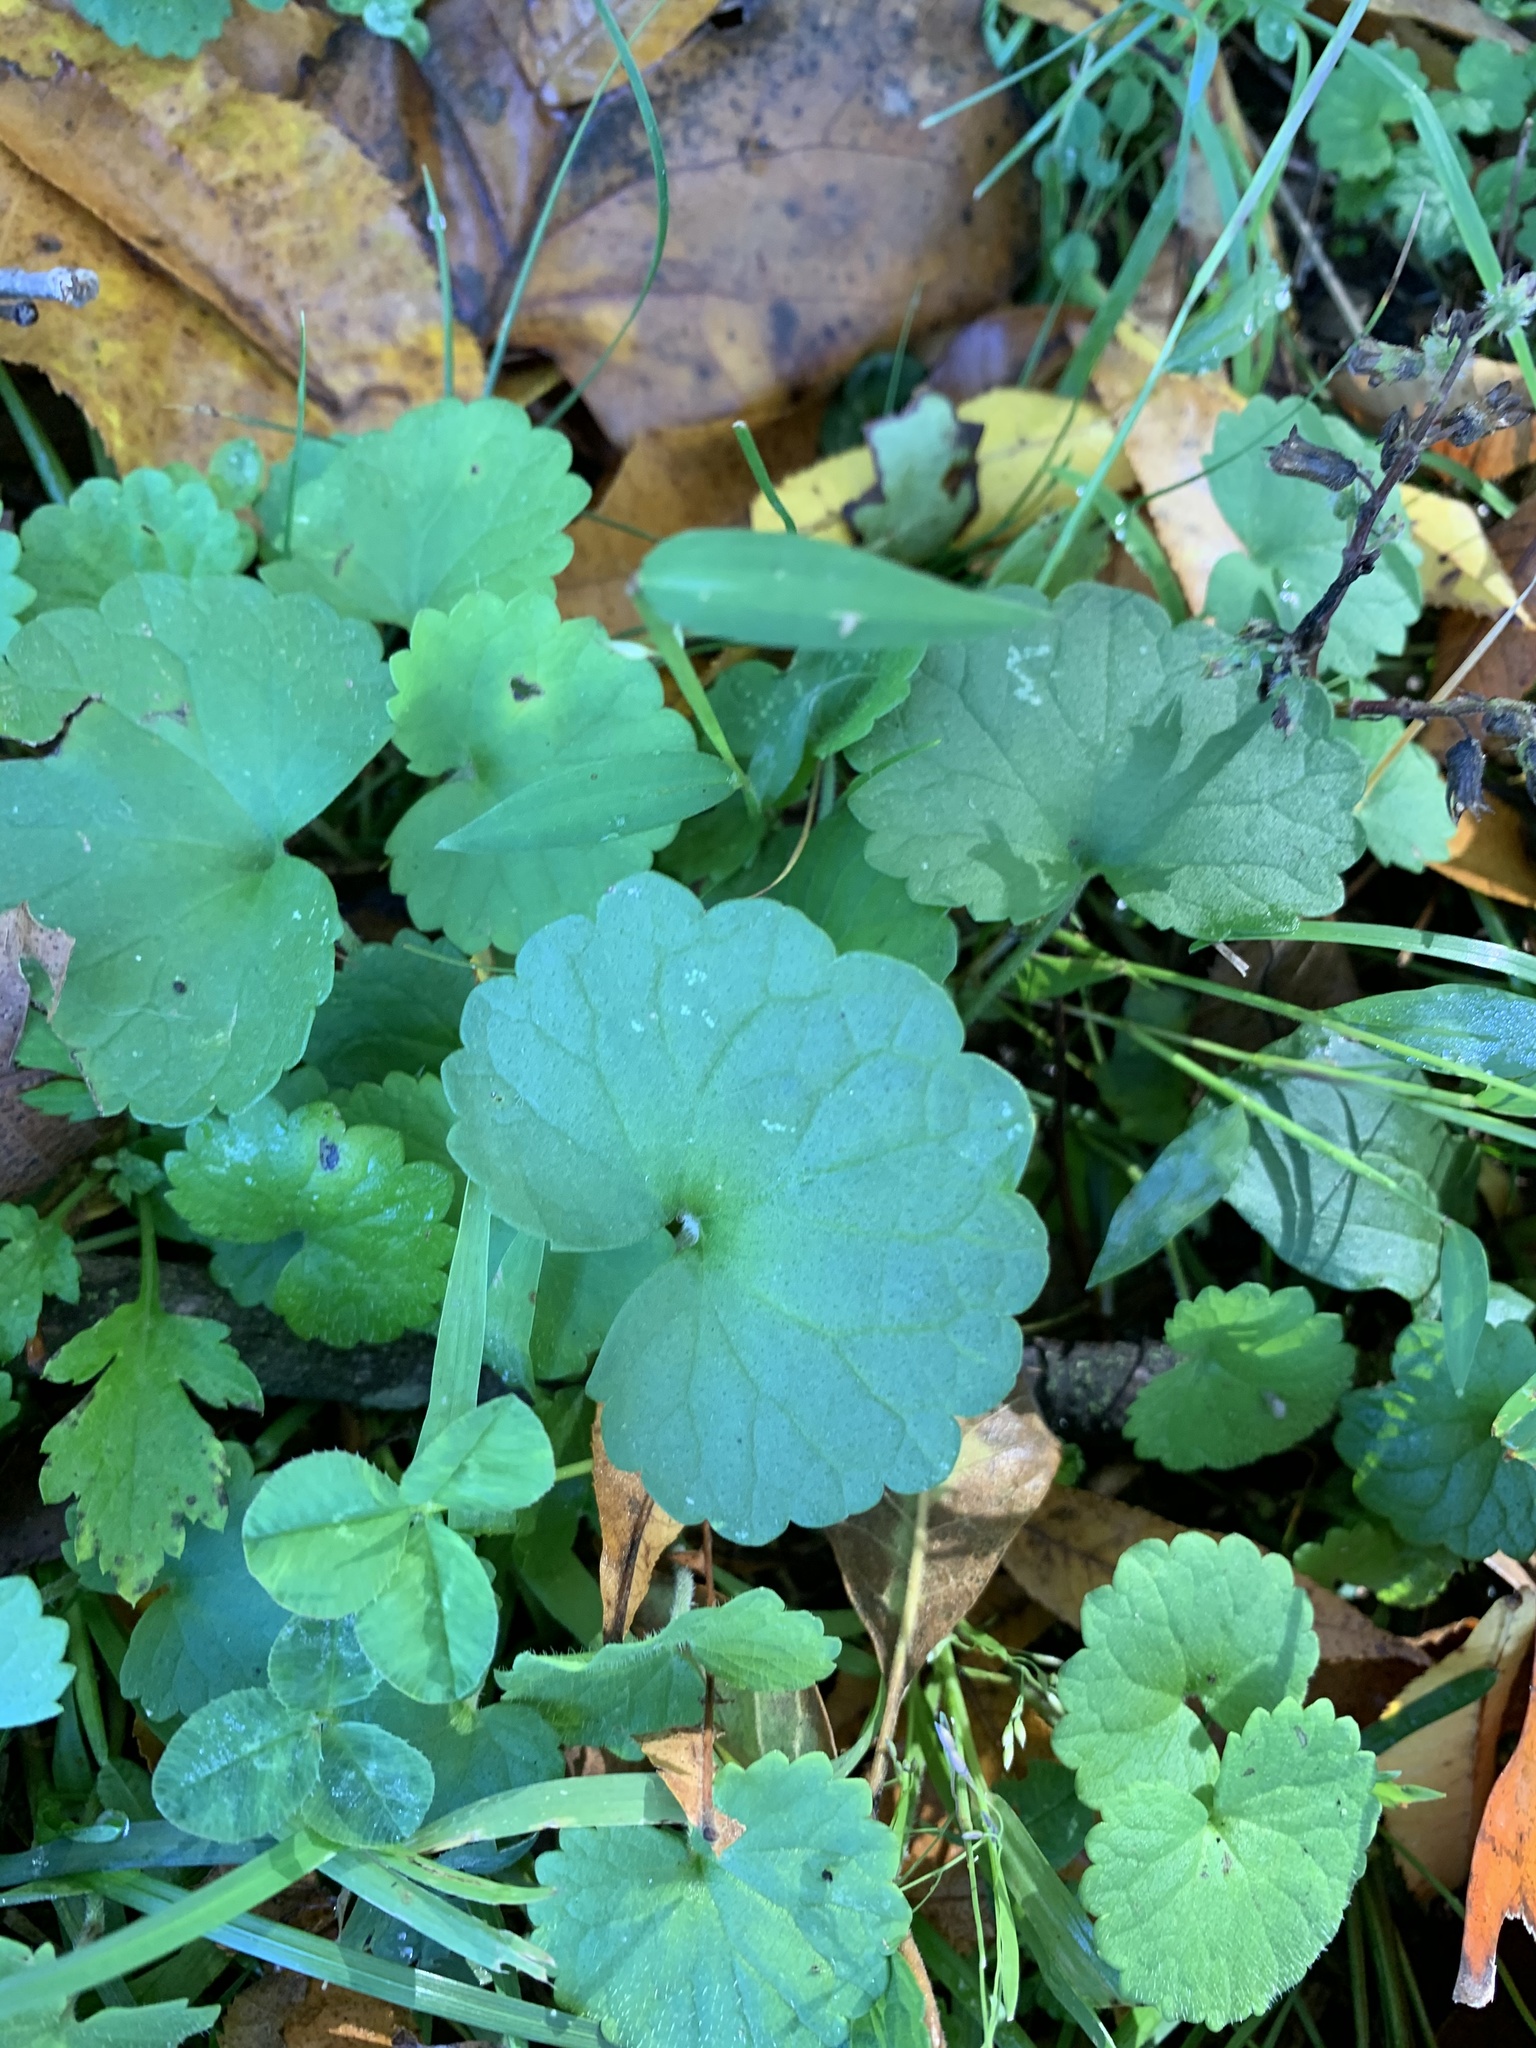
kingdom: Plantae
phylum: Tracheophyta
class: Magnoliopsida
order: Lamiales
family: Lamiaceae
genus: Glechoma
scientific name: Glechoma hederacea
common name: Ground ivy
